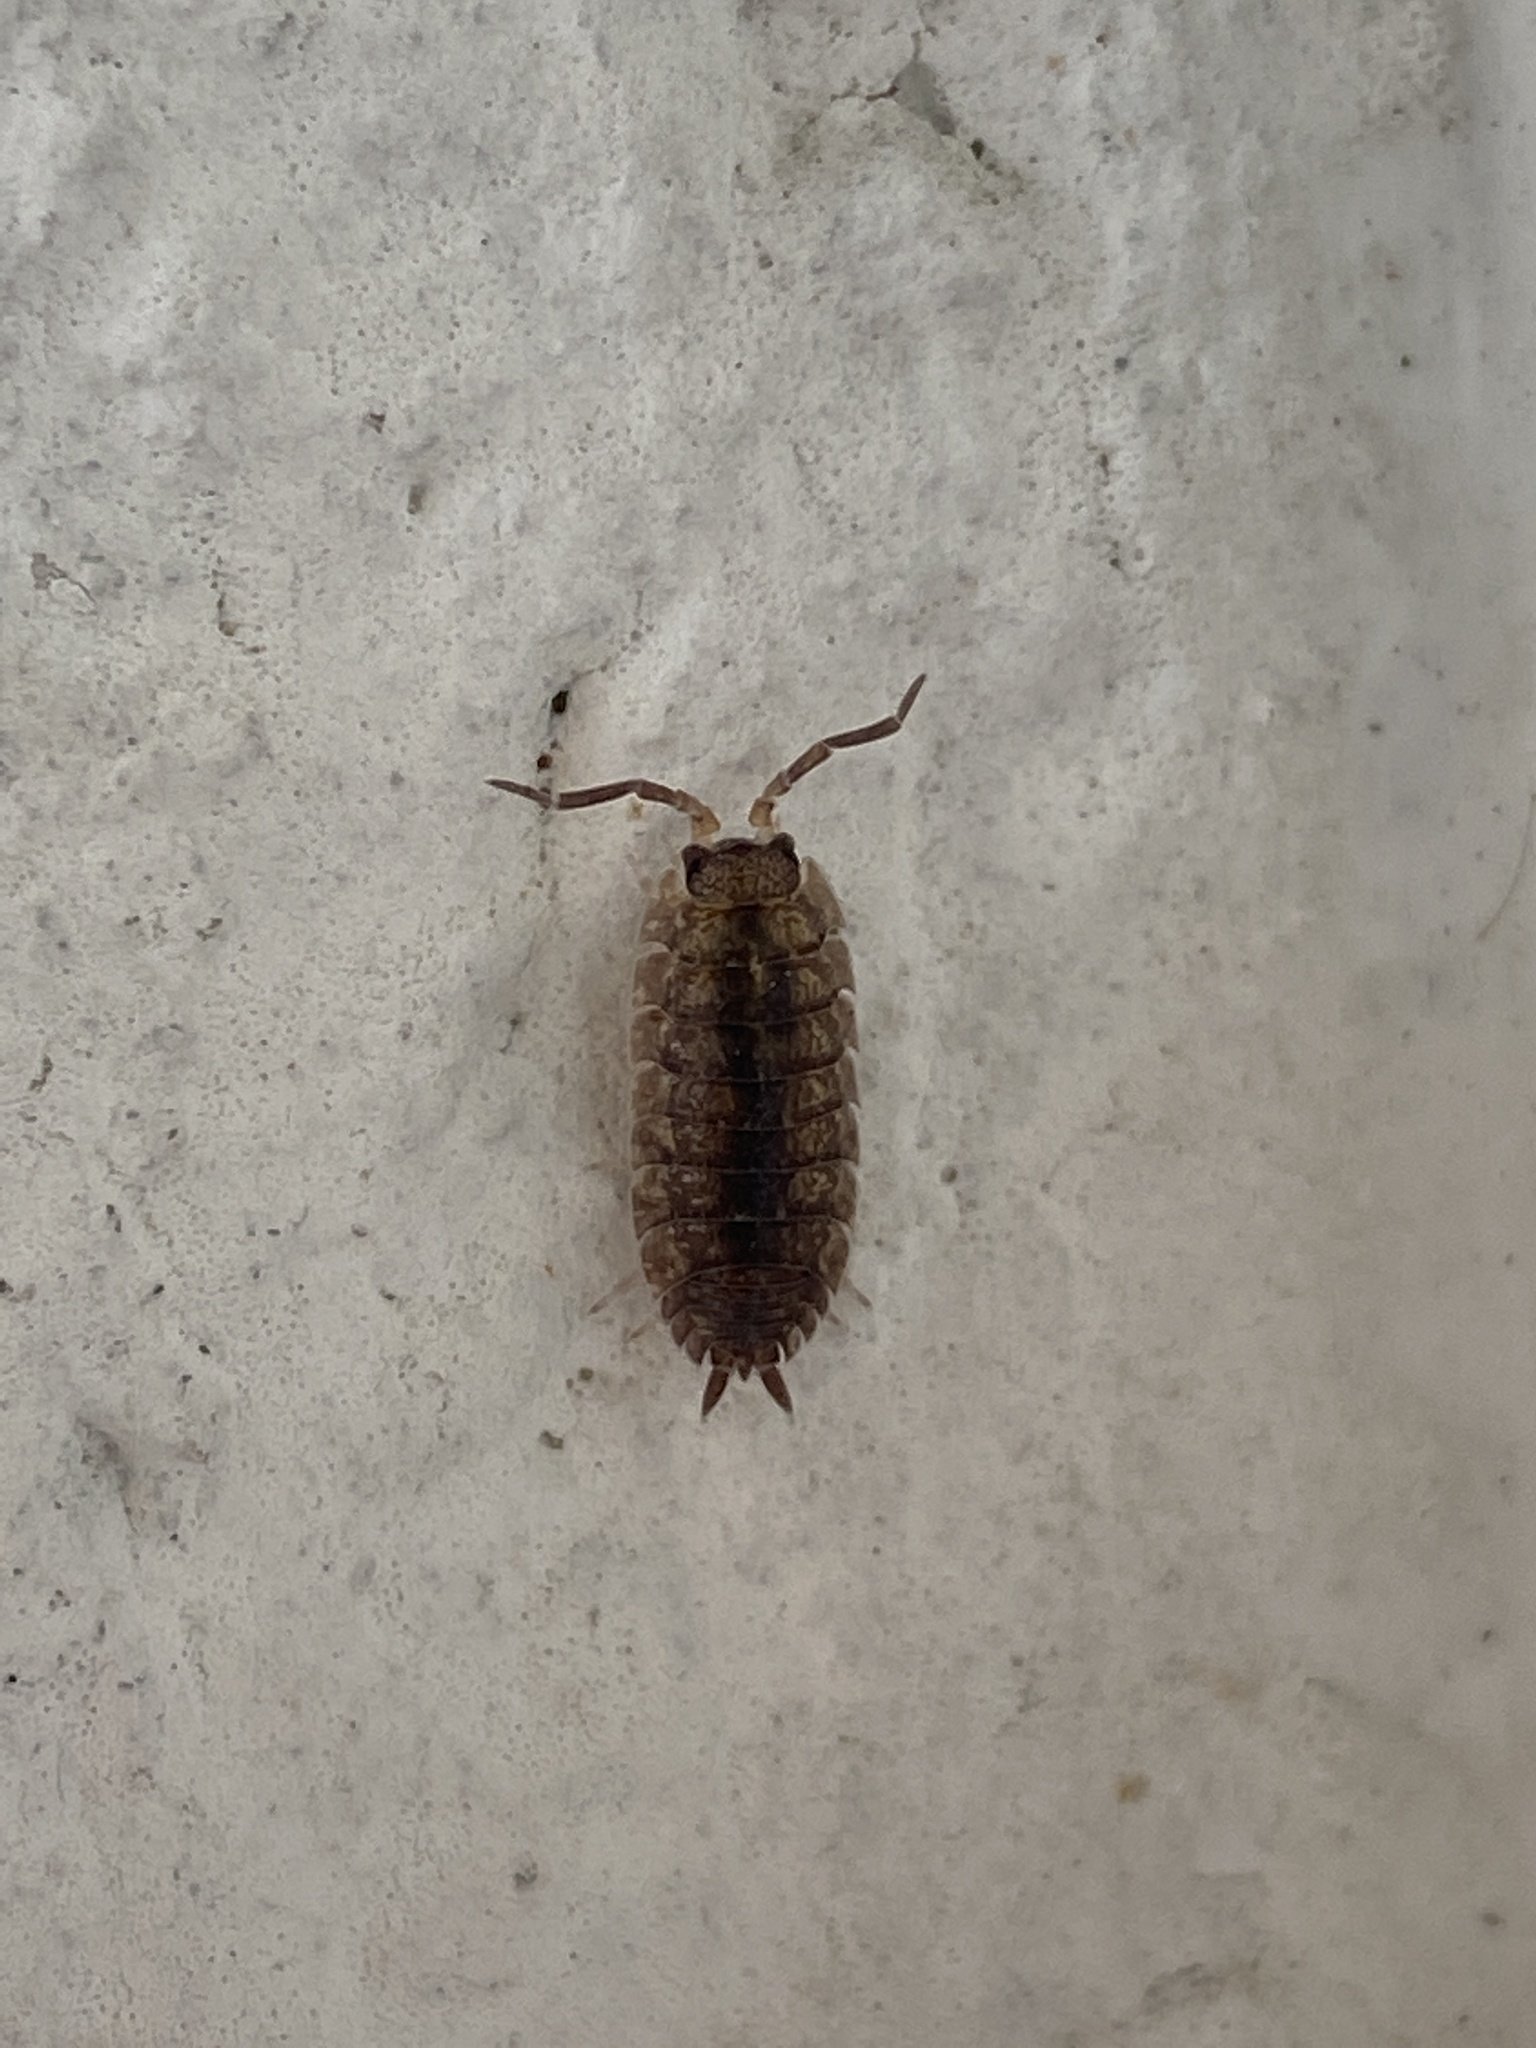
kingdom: Animalia
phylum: Arthropoda
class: Malacostraca
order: Isopoda
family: Porcellionidae
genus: Porcellio
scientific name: Porcellio scaber
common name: Common rough woodlouse
